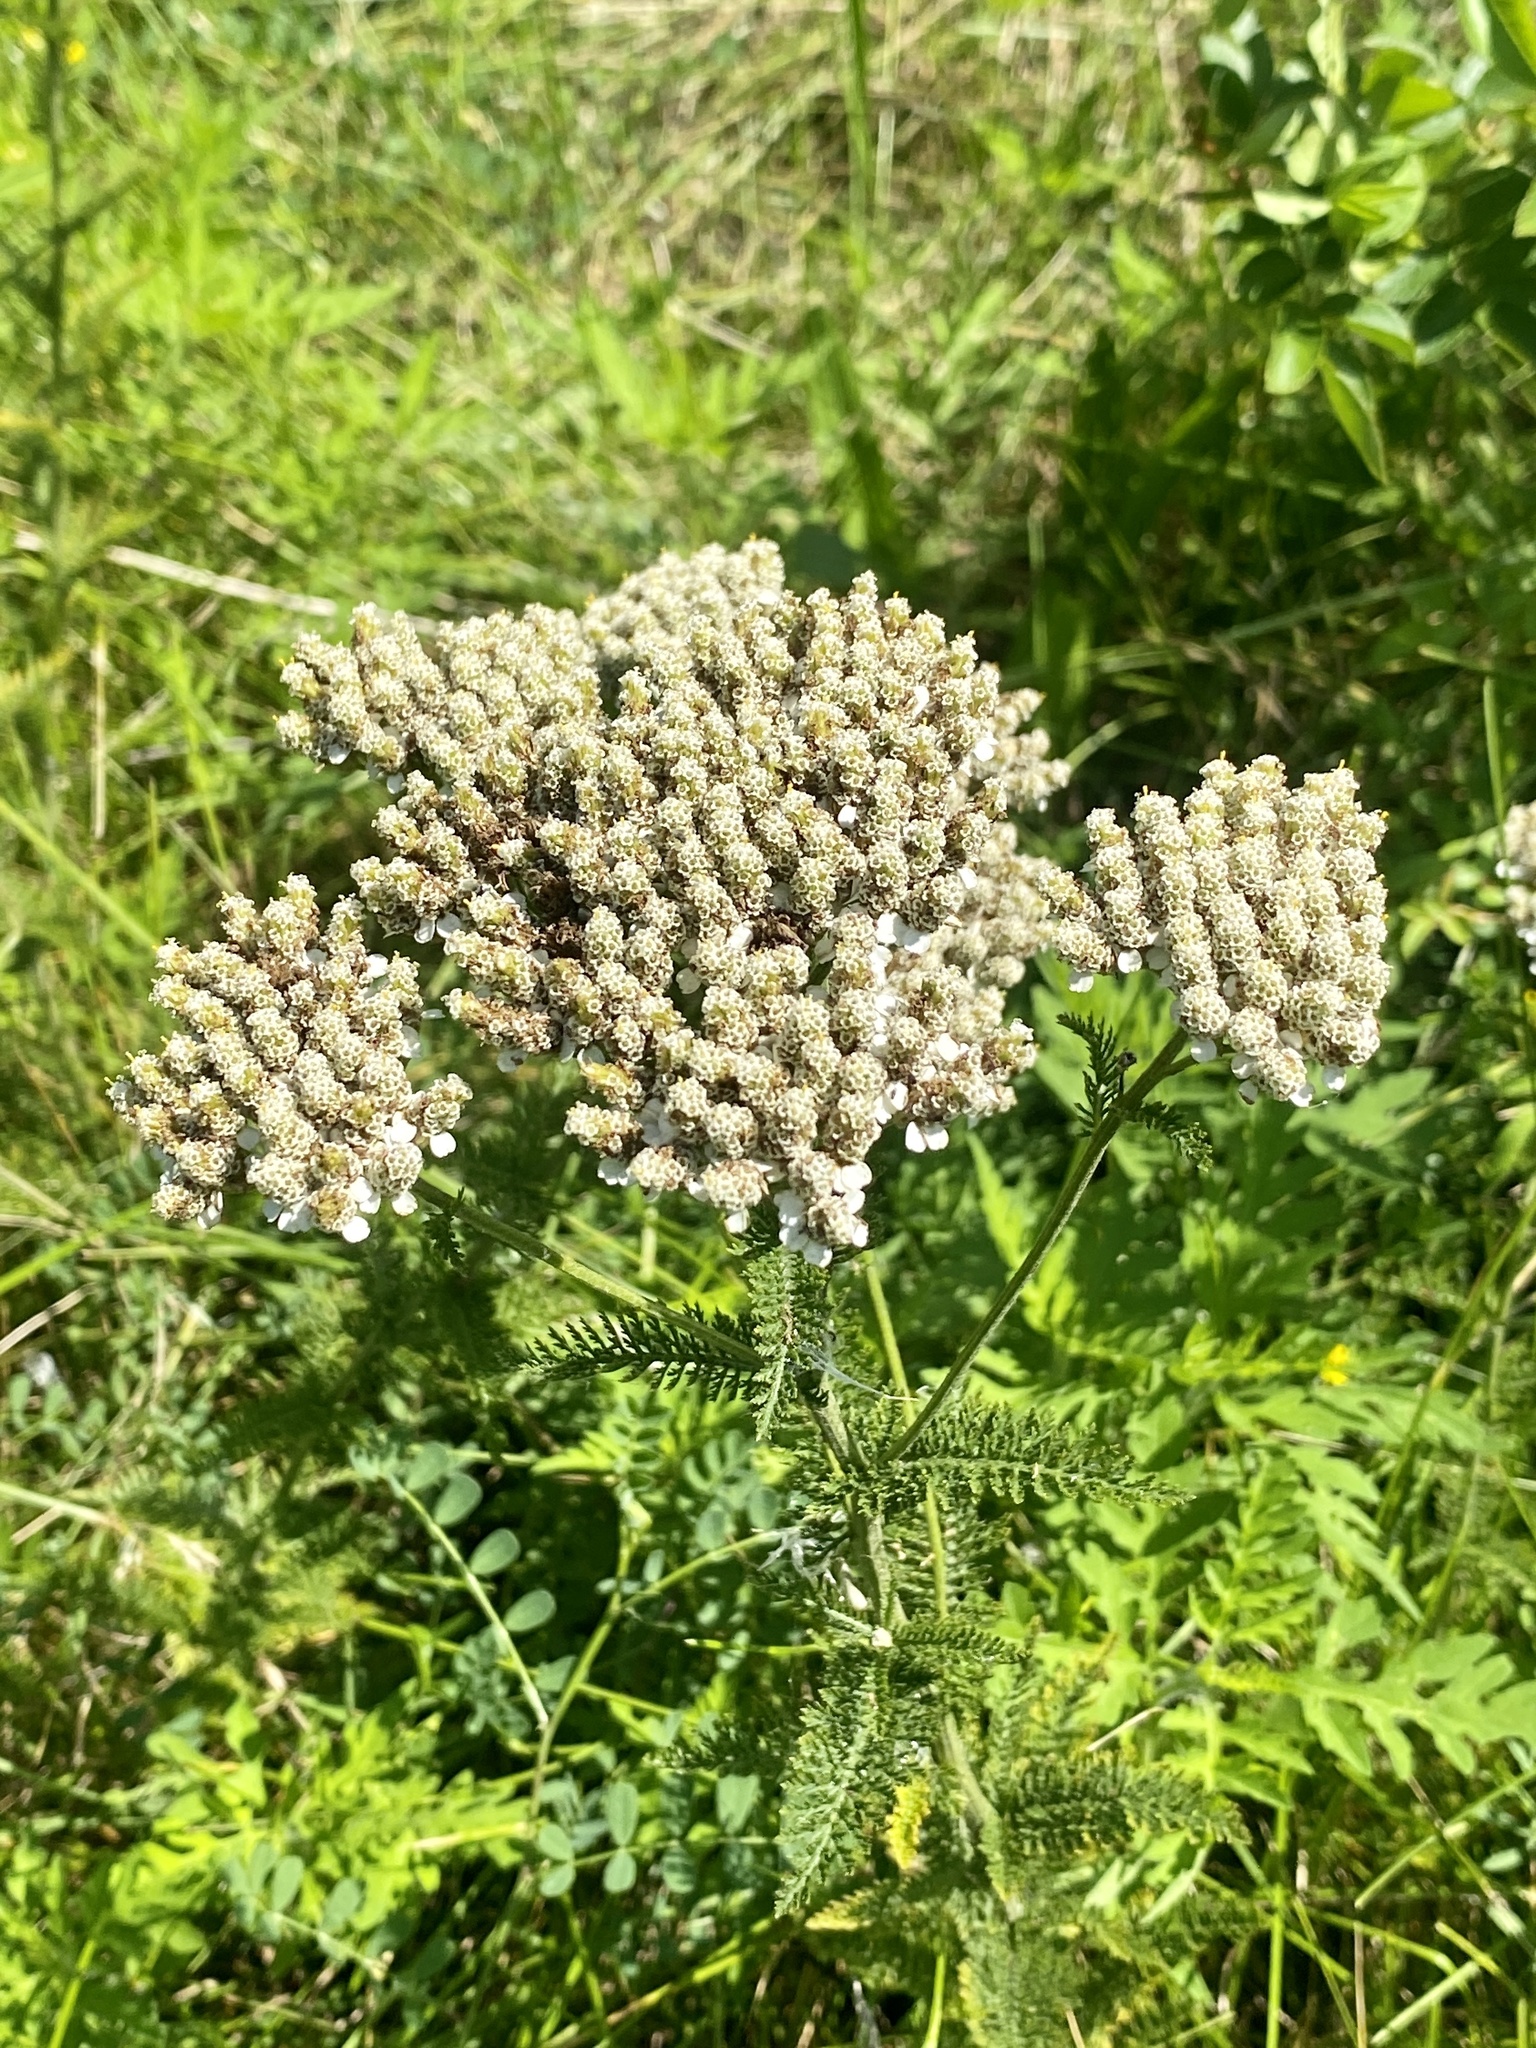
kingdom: Plantae
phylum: Tracheophyta
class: Magnoliopsida
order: Asterales
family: Asteraceae
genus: Achillea
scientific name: Achillea millefolium
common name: Yarrow
